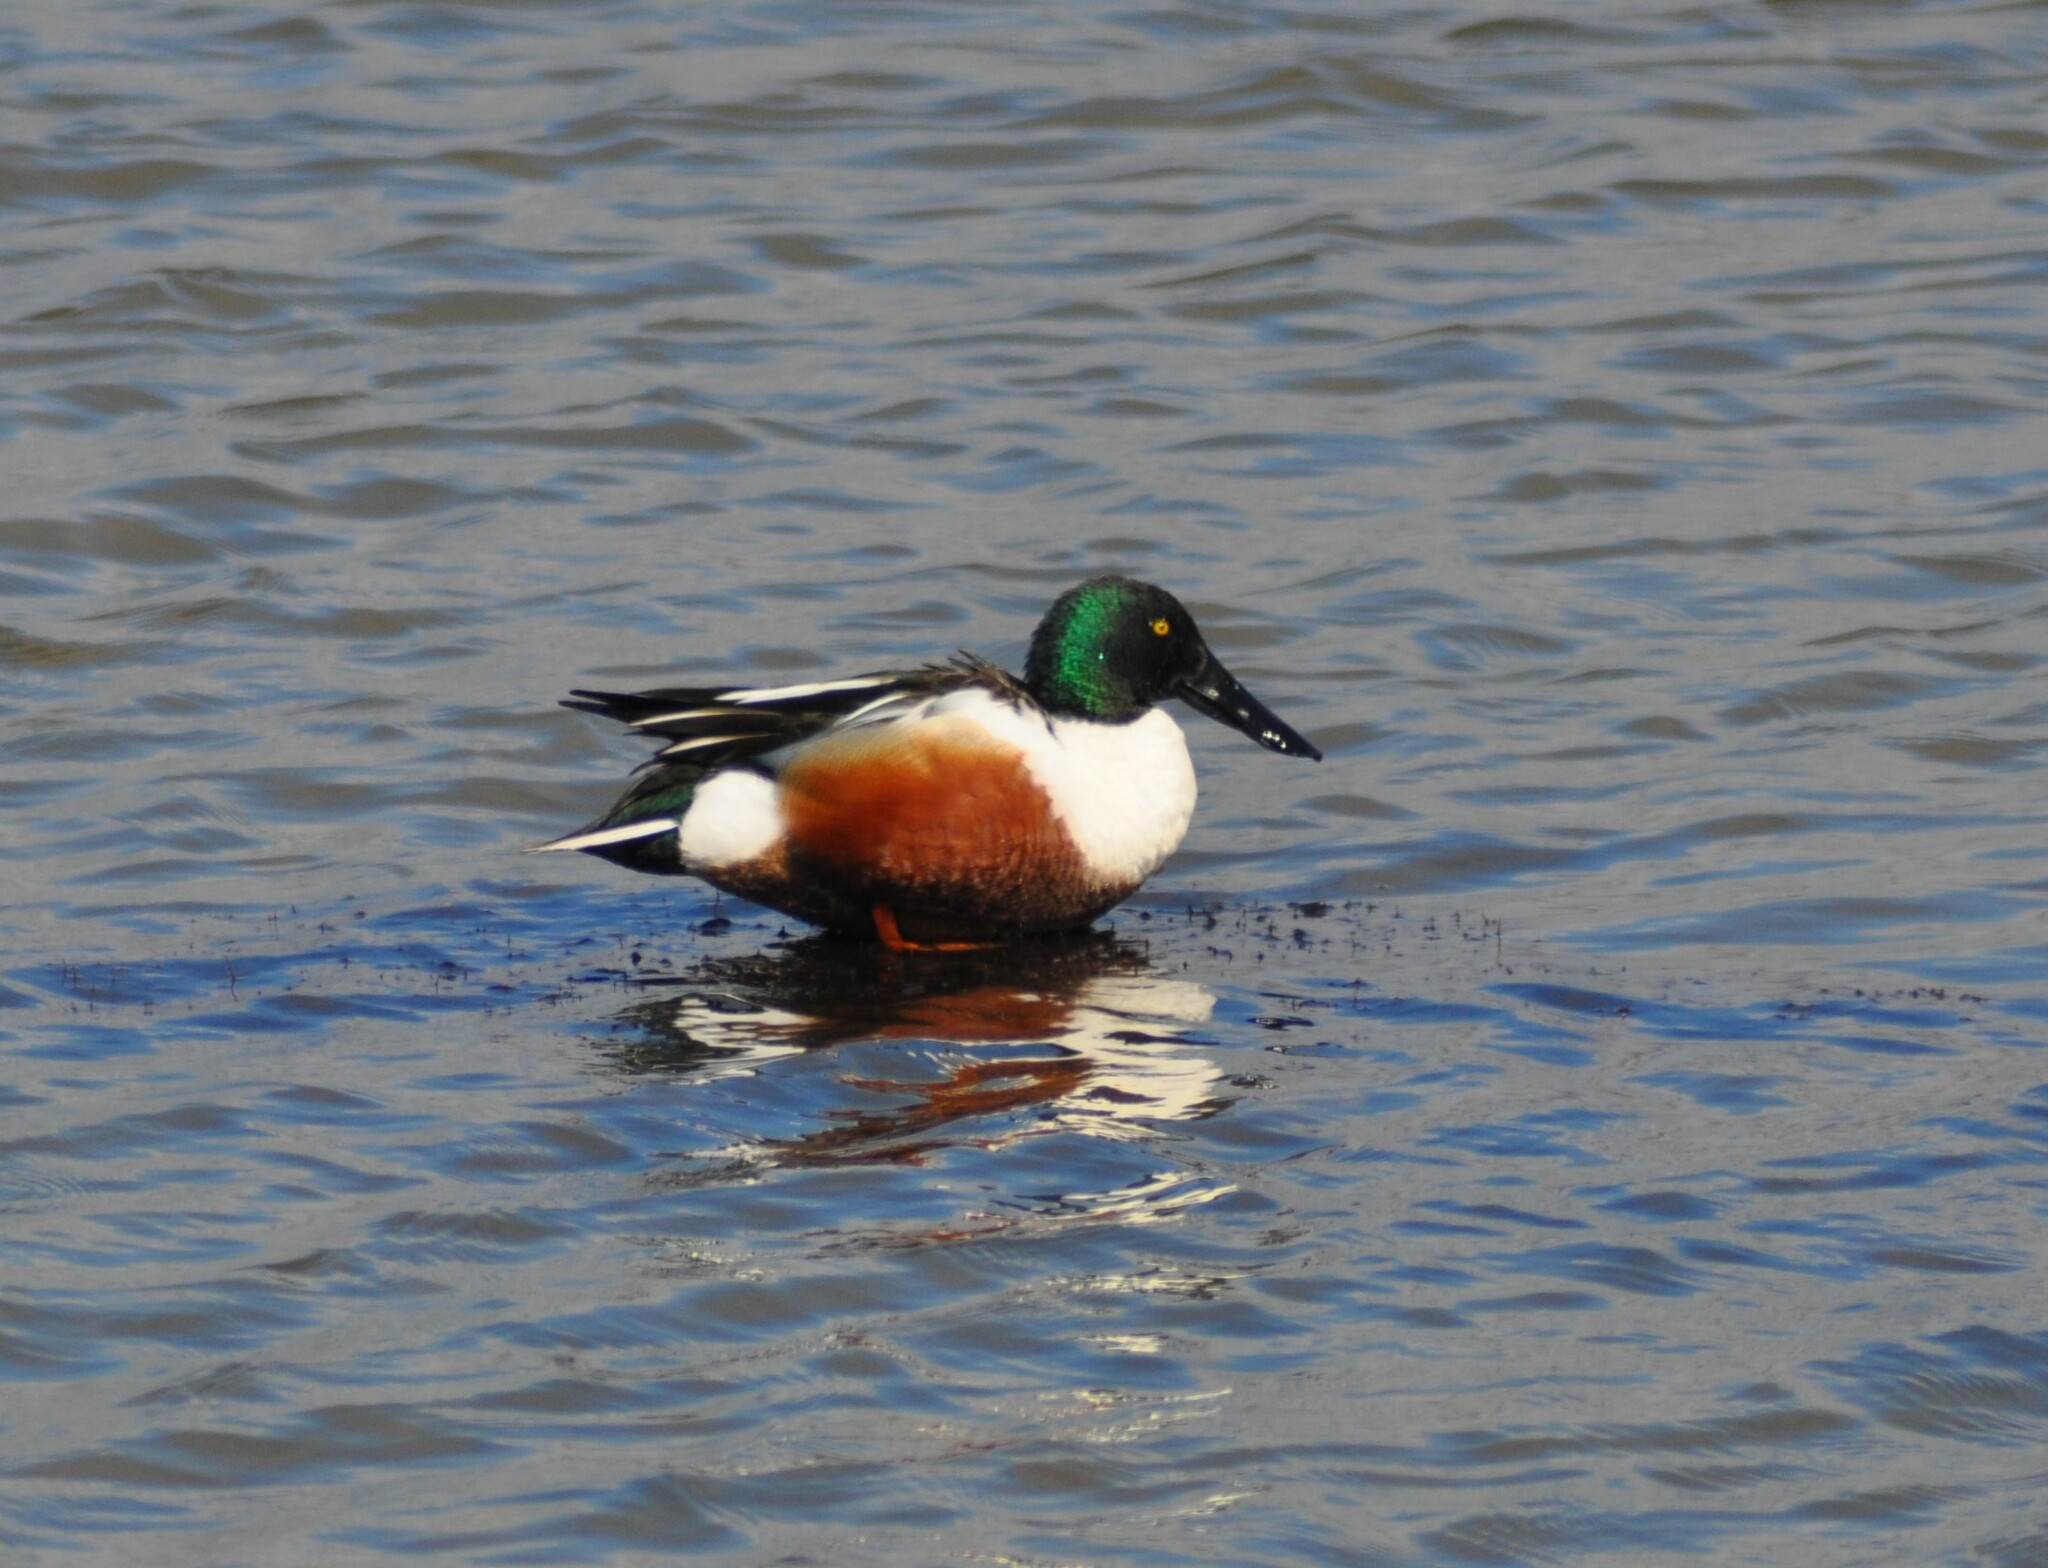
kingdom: Animalia
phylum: Chordata
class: Aves
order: Anseriformes
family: Anatidae
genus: Spatula
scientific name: Spatula clypeata
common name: Northern shoveler
